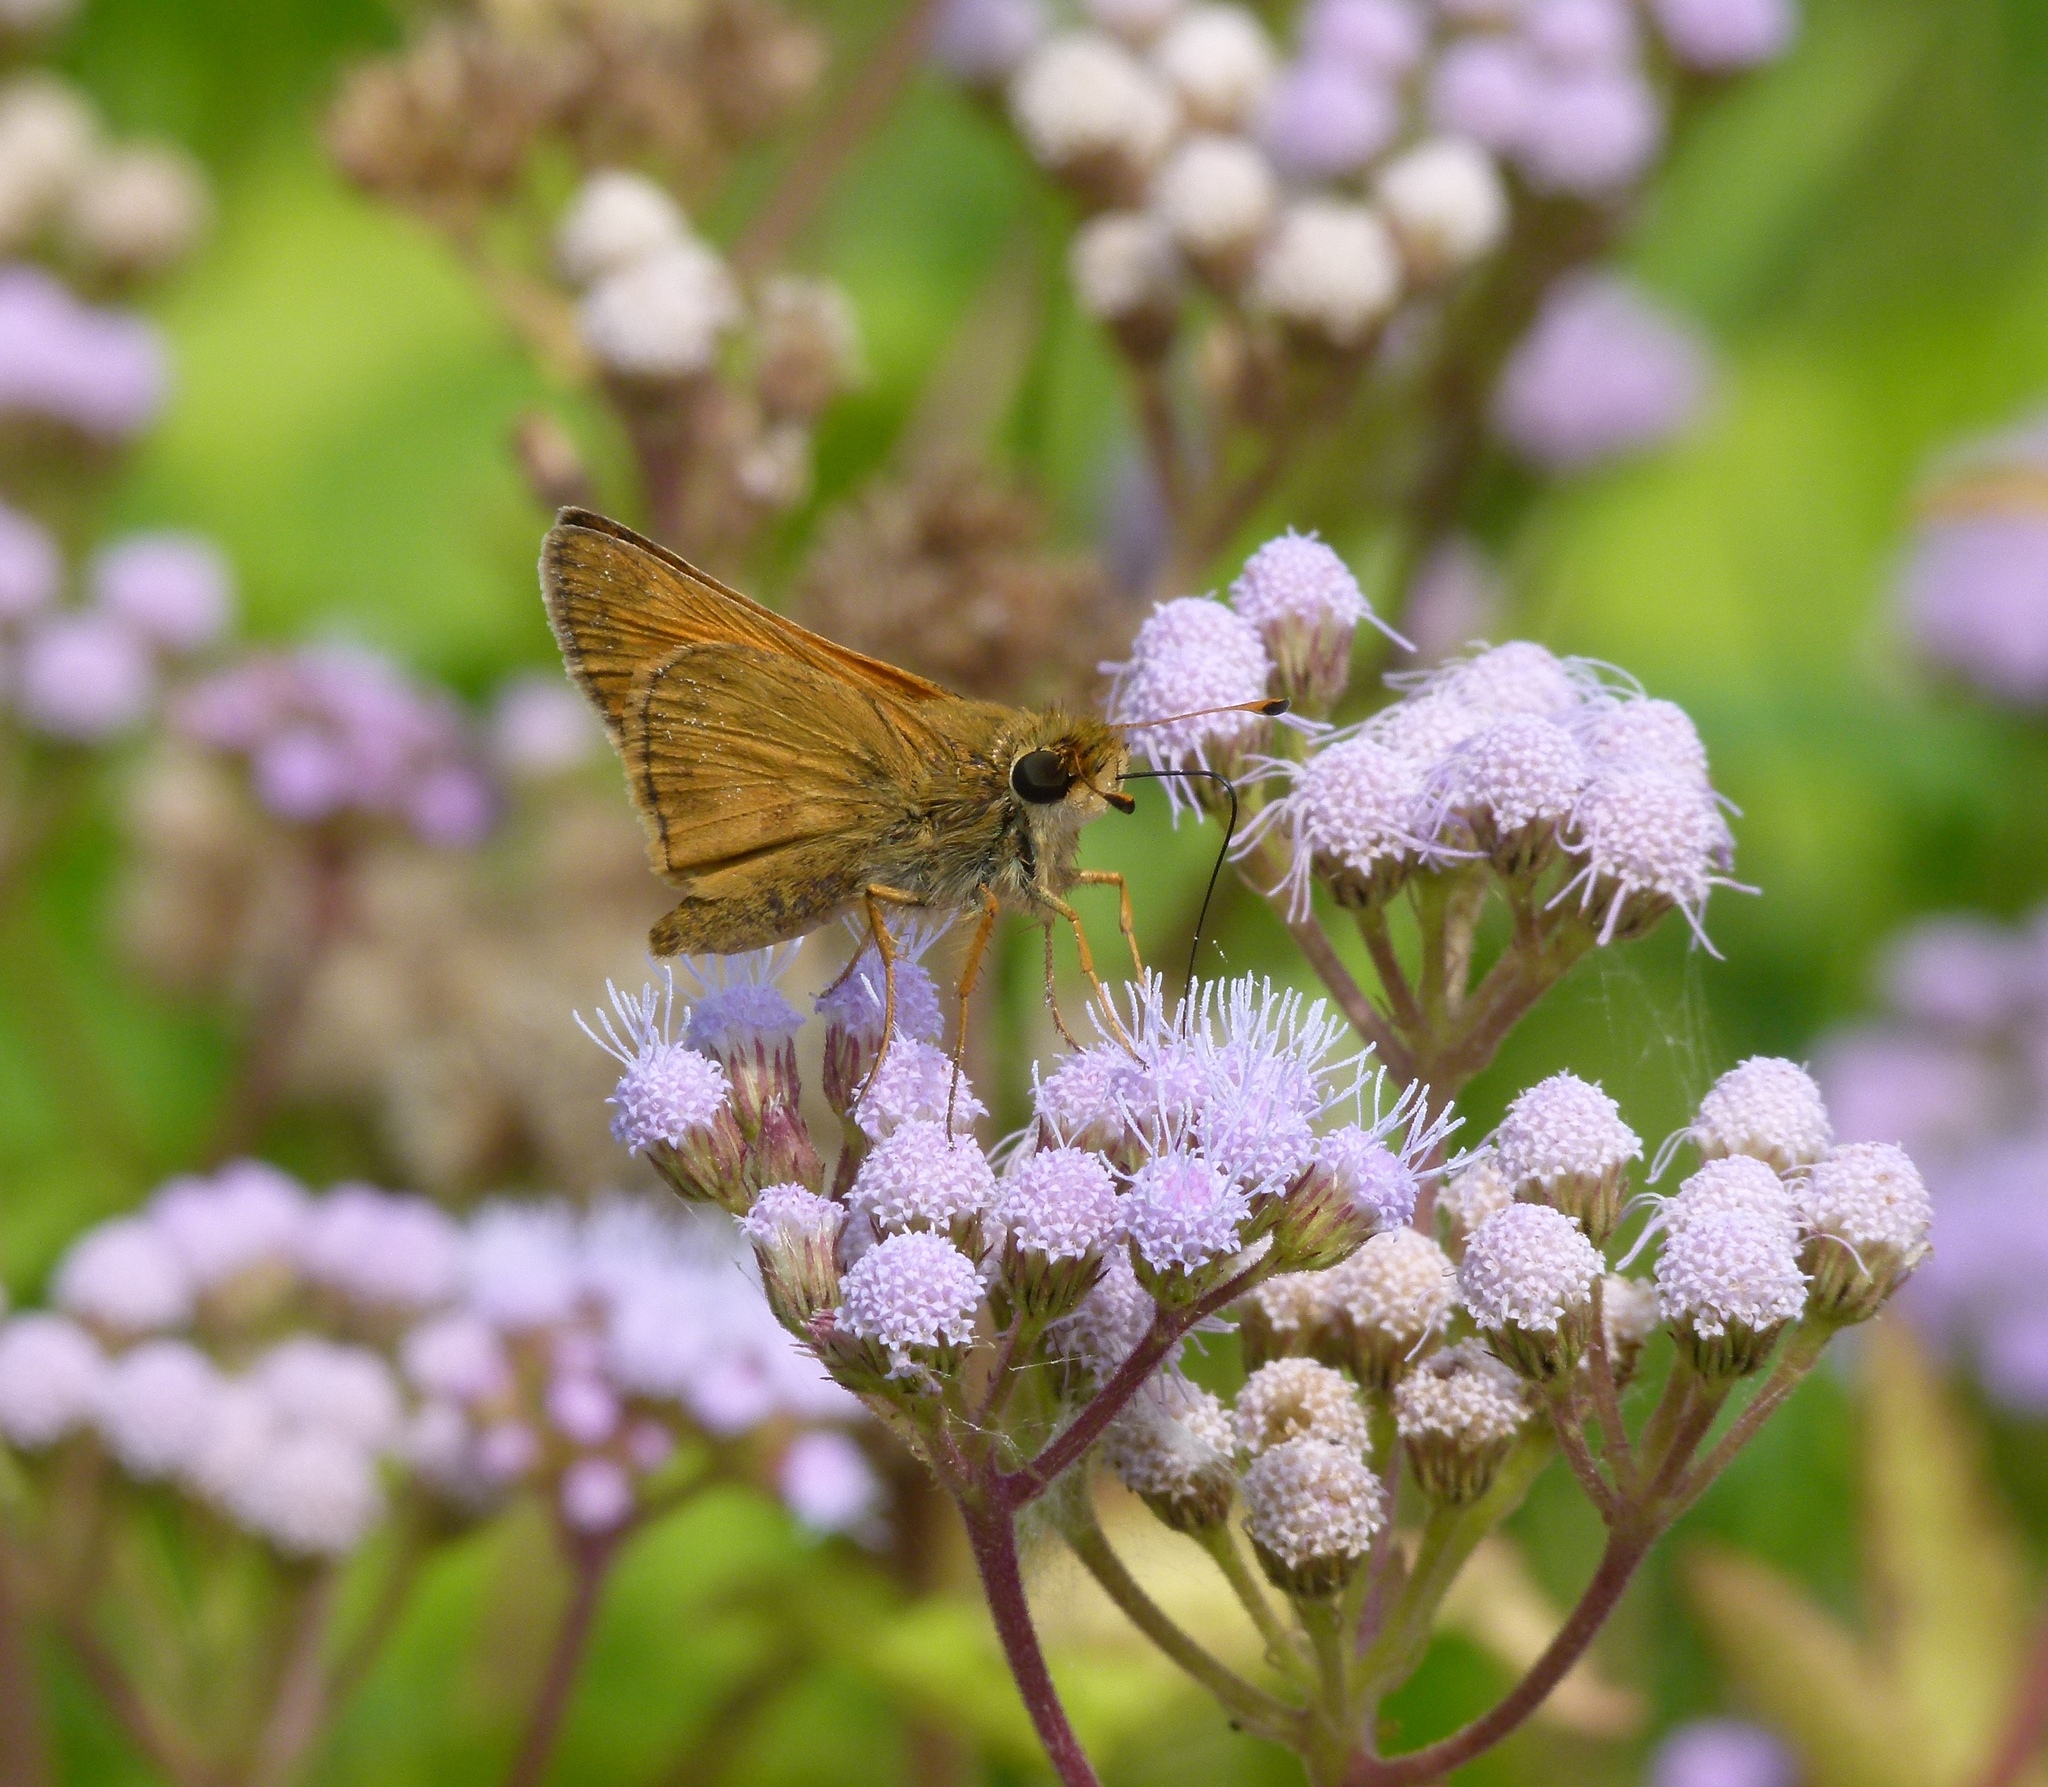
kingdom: Animalia
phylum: Arthropoda
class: Insecta
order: Lepidoptera
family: Hesperiidae
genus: Atalopedes
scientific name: Atalopedes
